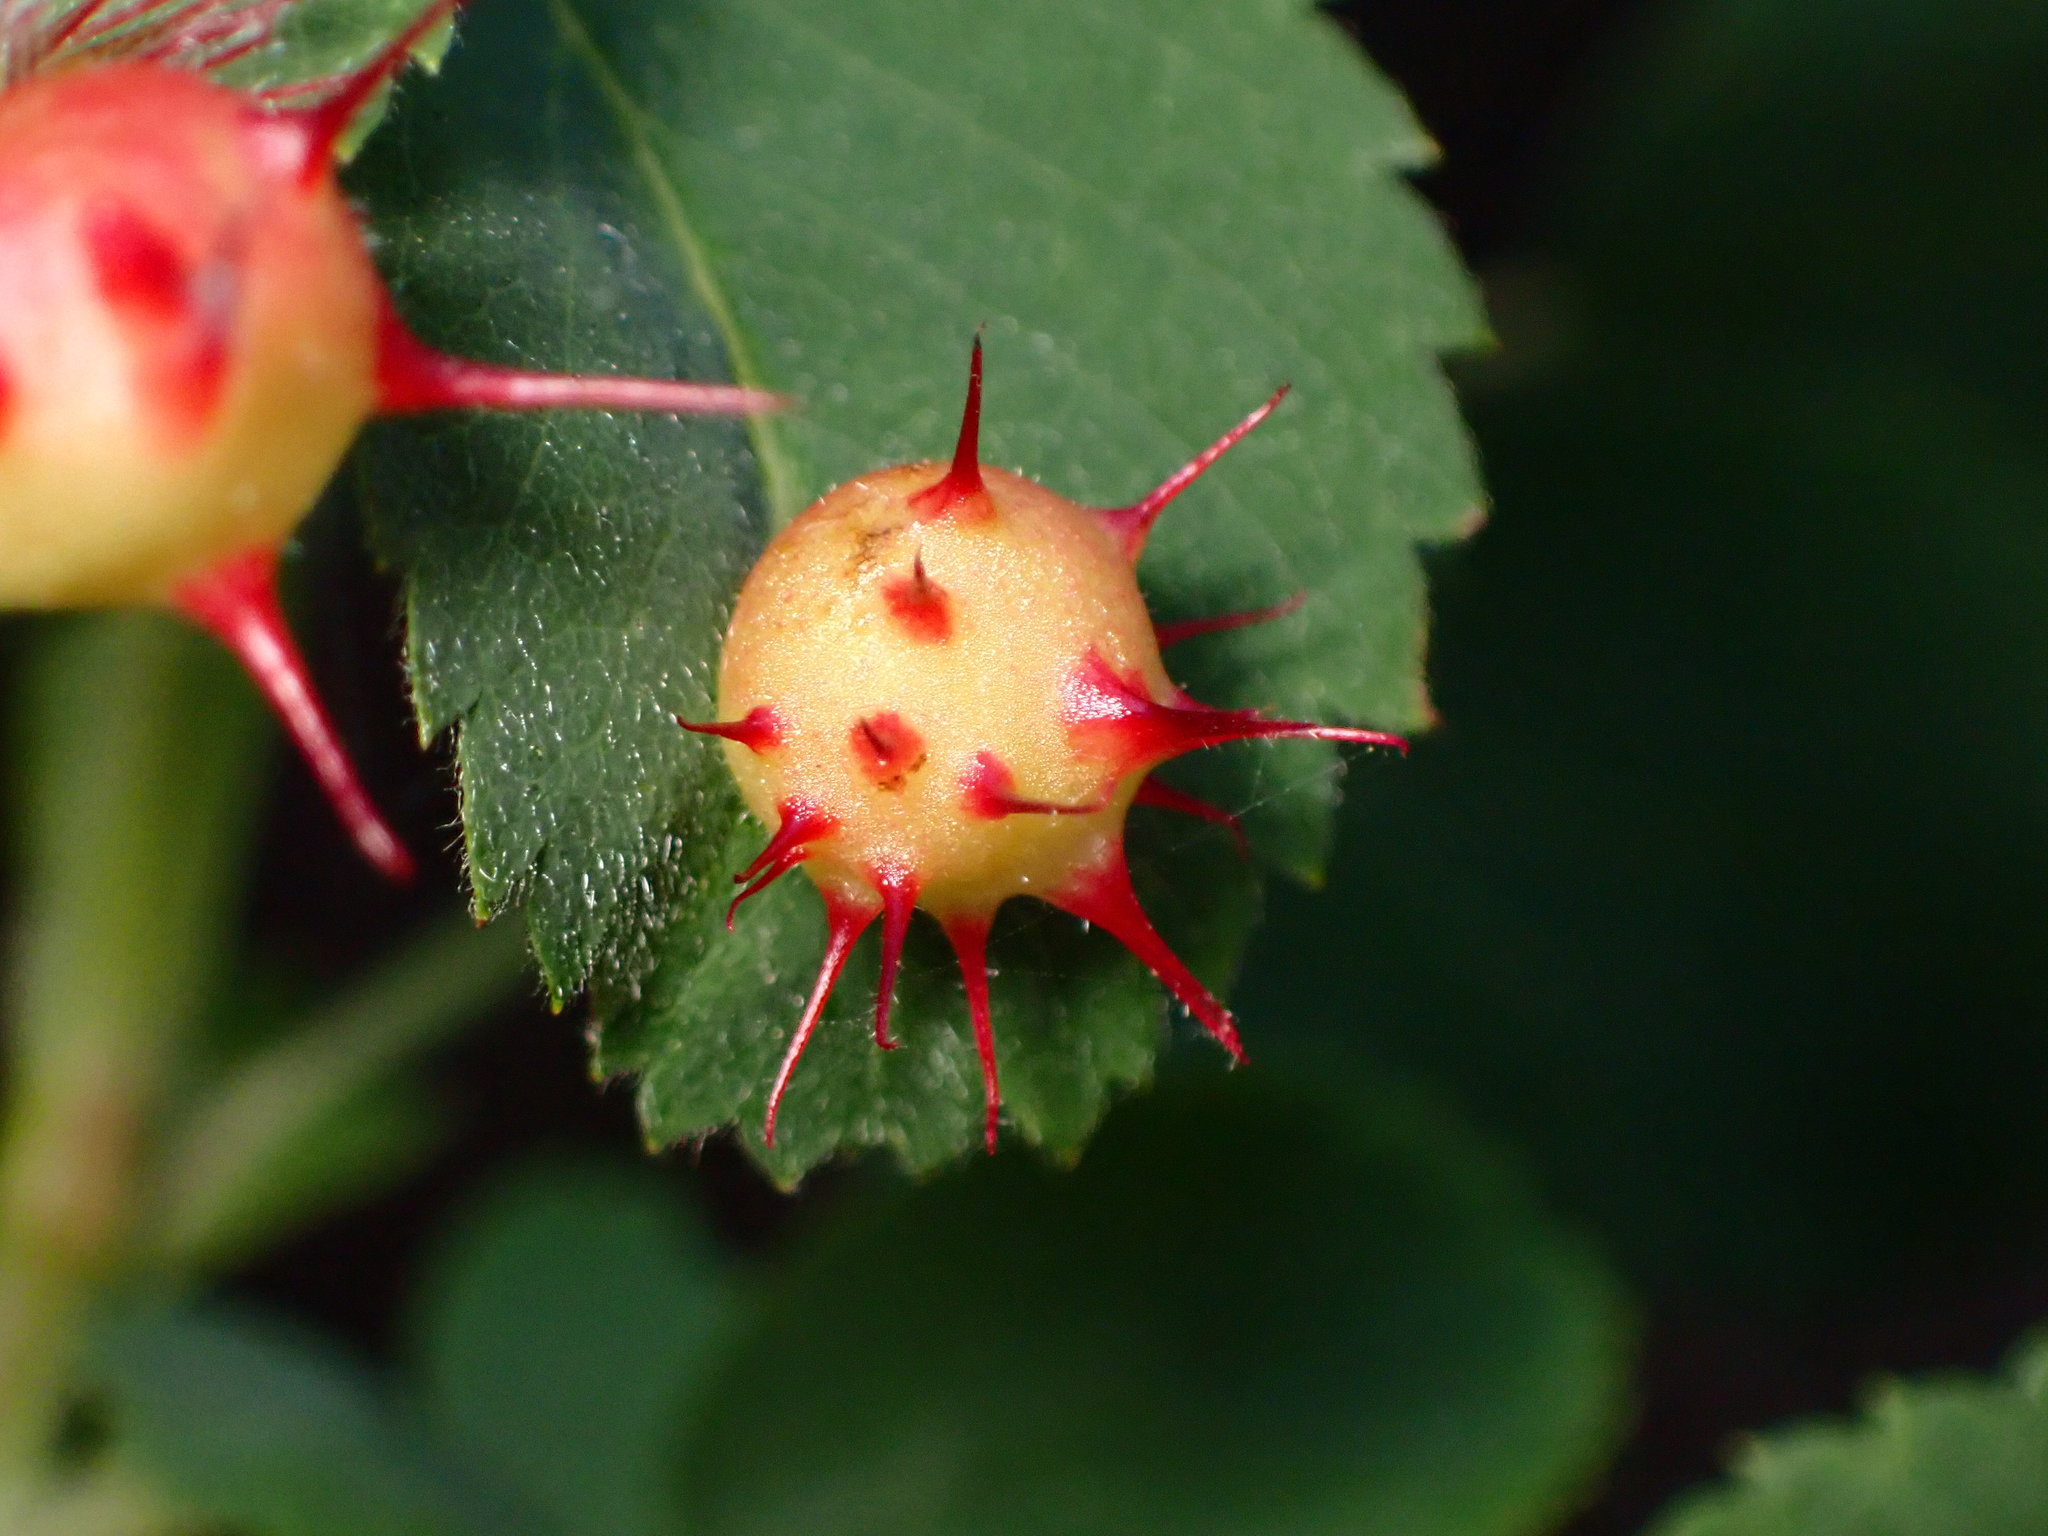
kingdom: Animalia
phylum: Arthropoda
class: Insecta
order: Hymenoptera
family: Cynipidae
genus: Diplolepis
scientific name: Diplolepis polita
